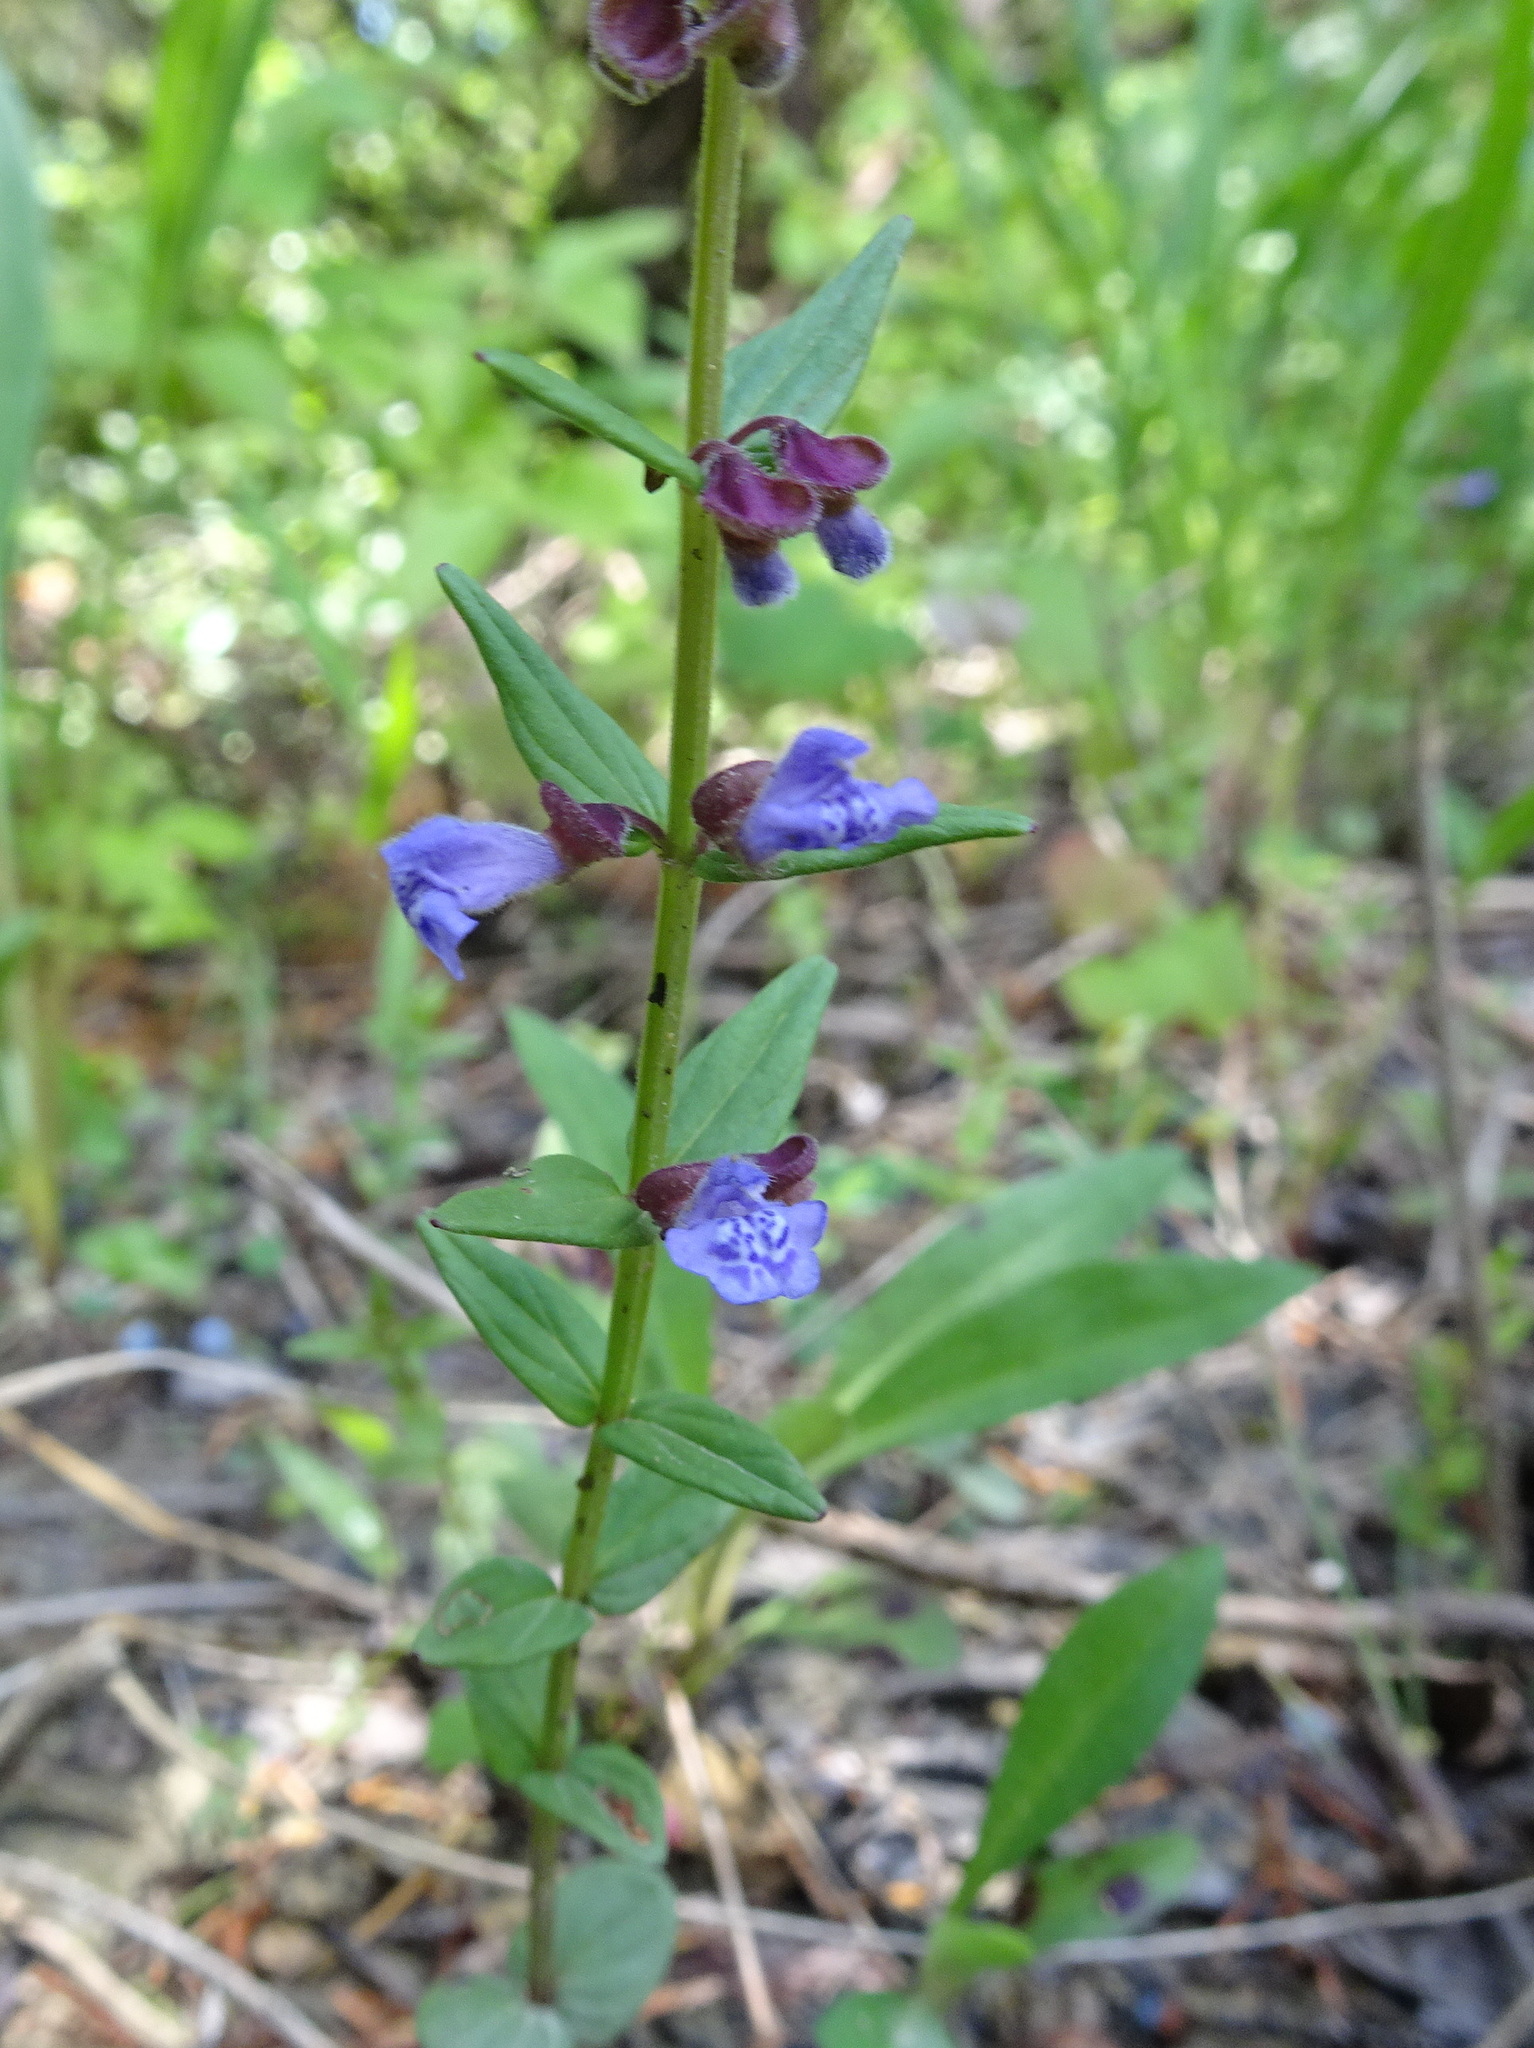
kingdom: Plantae
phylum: Tracheophyta
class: Magnoliopsida
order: Lamiales
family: Lamiaceae
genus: Scutellaria
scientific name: Scutellaria parvula
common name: Little scullcap
